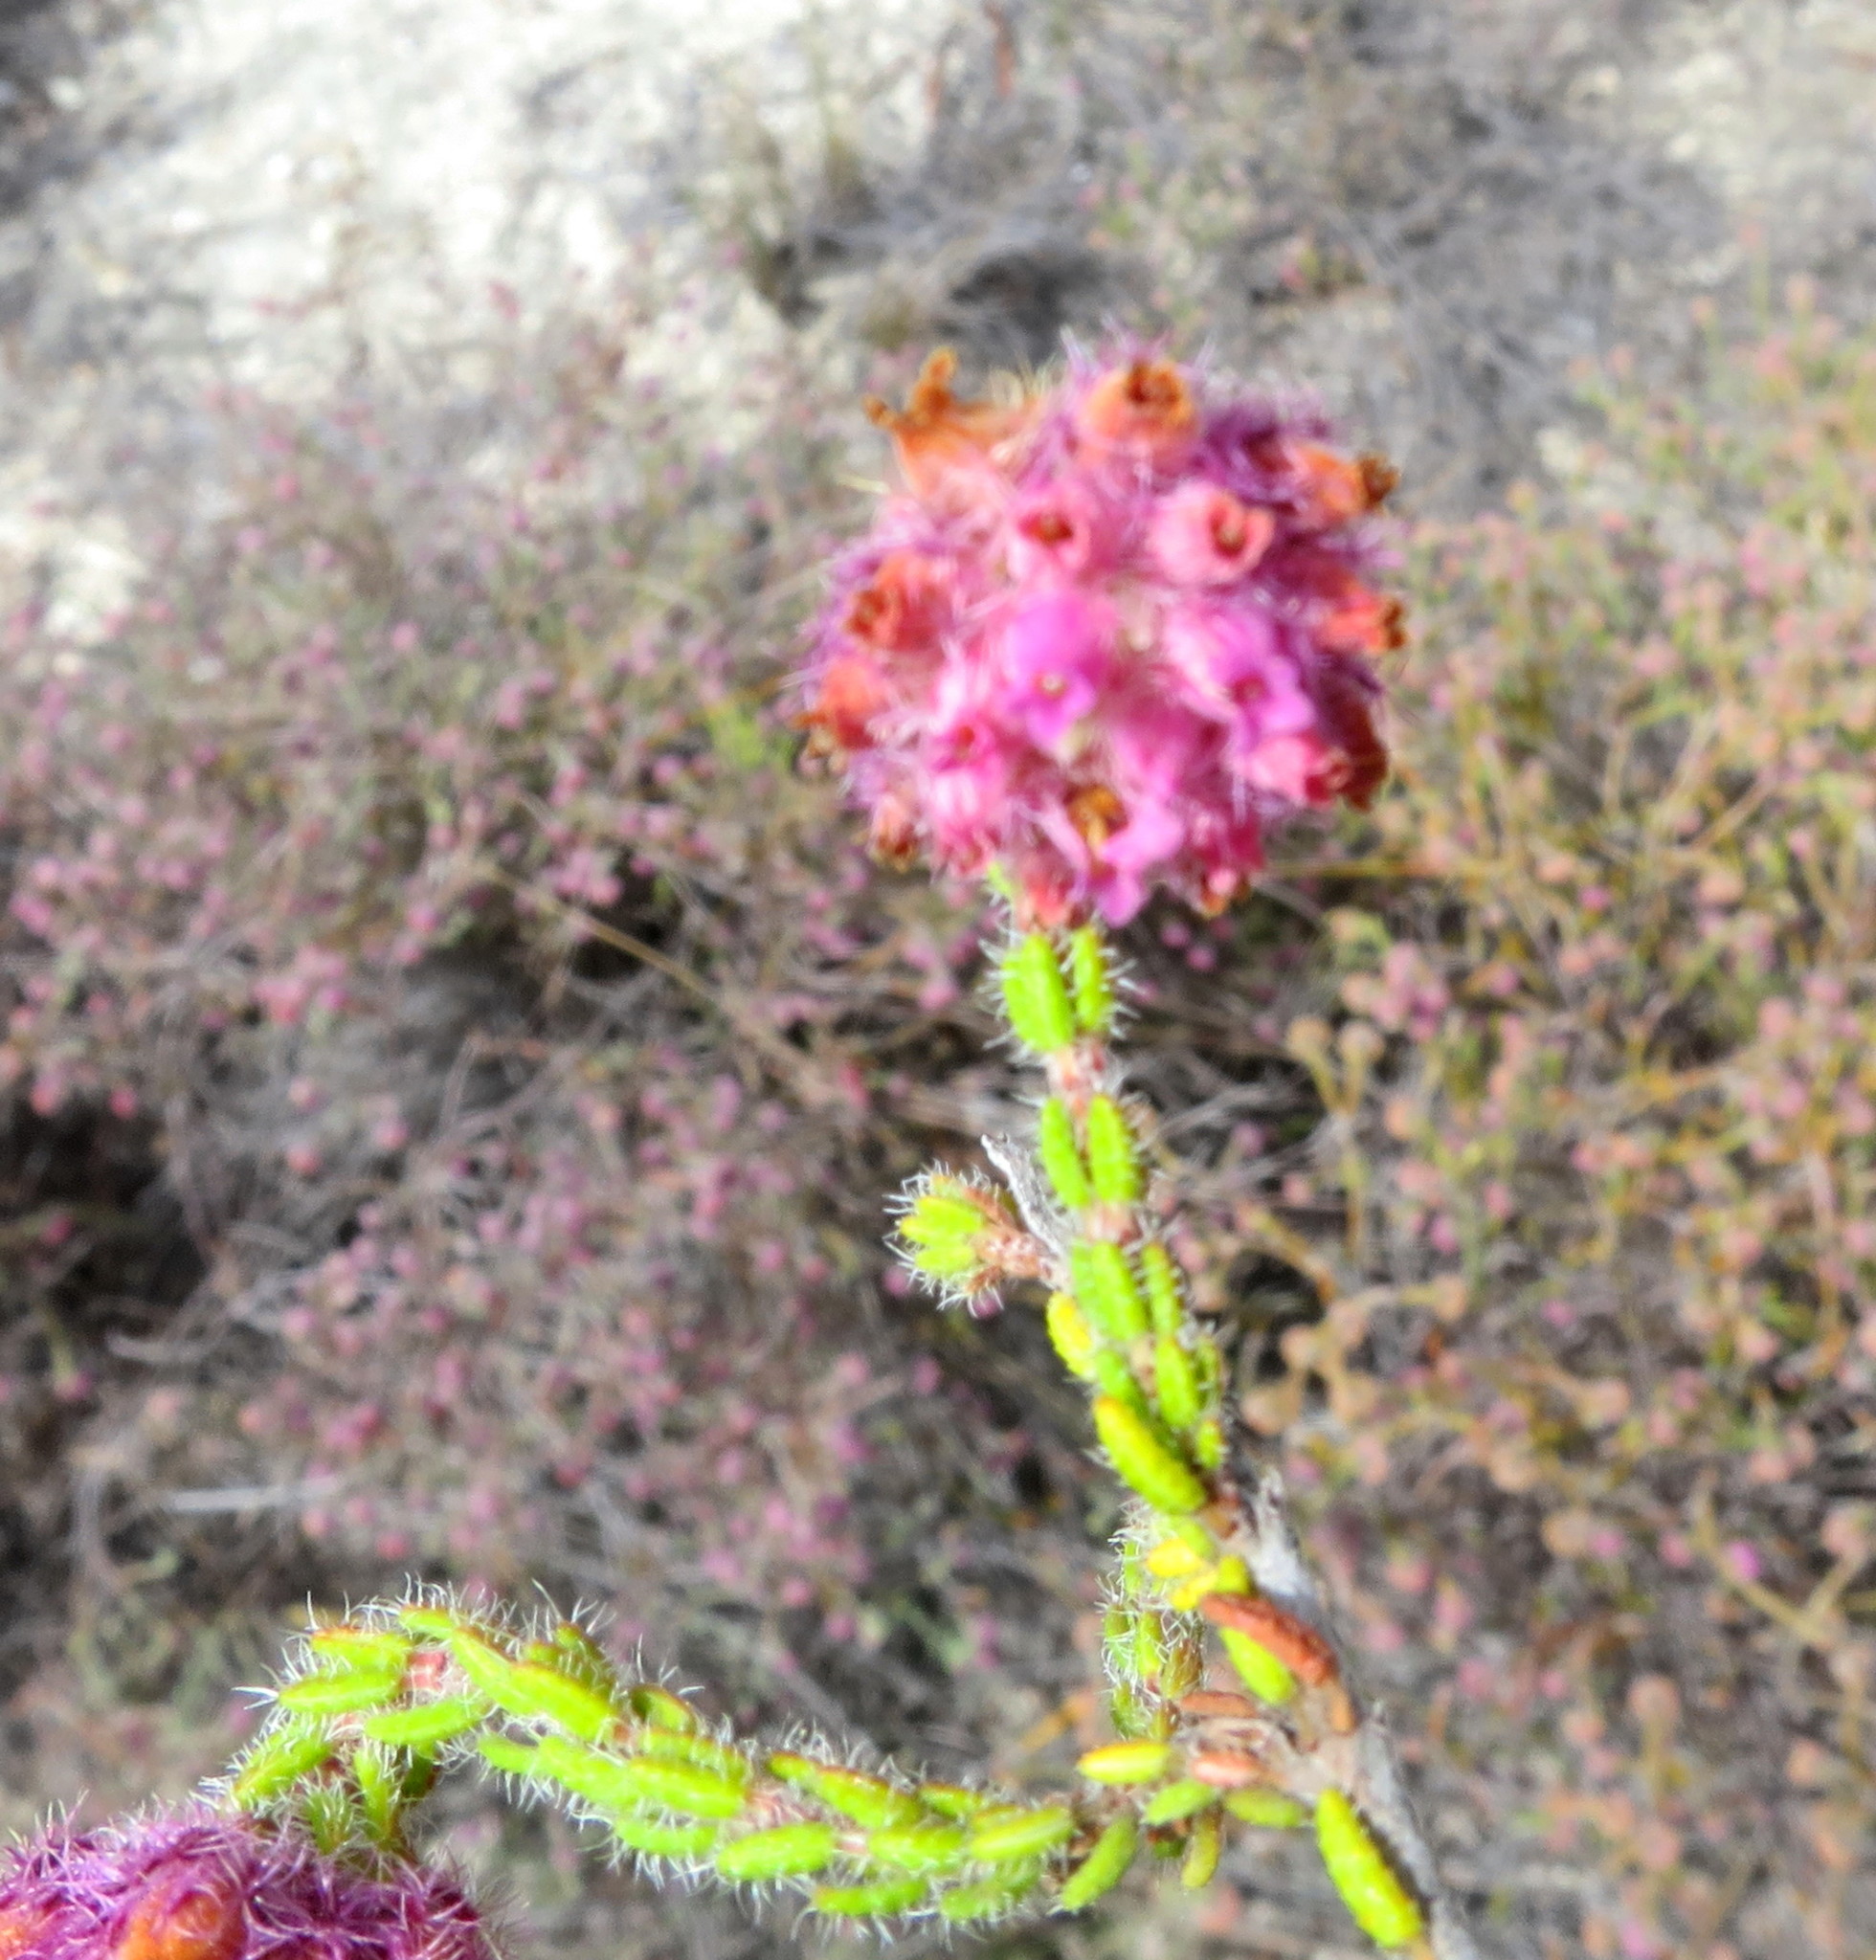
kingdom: Plantae
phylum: Tracheophyta
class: Magnoliopsida
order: Ericales
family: Ericaceae
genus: Erica
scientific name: Erica solandra
